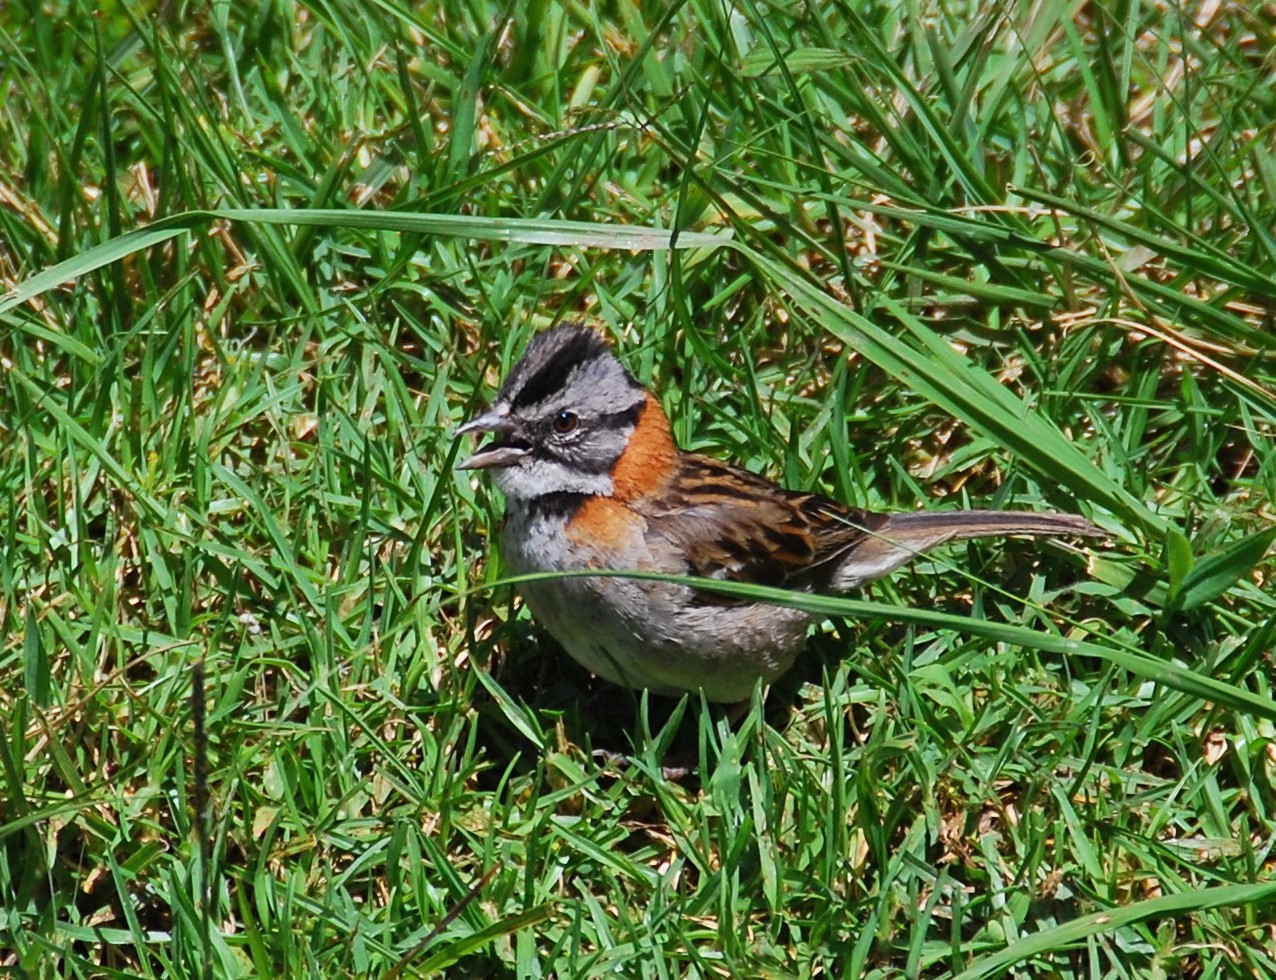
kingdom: Animalia
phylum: Chordata
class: Aves
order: Passeriformes
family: Passerellidae
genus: Zonotrichia
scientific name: Zonotrichia capensis
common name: Rufous-collared sparrow
